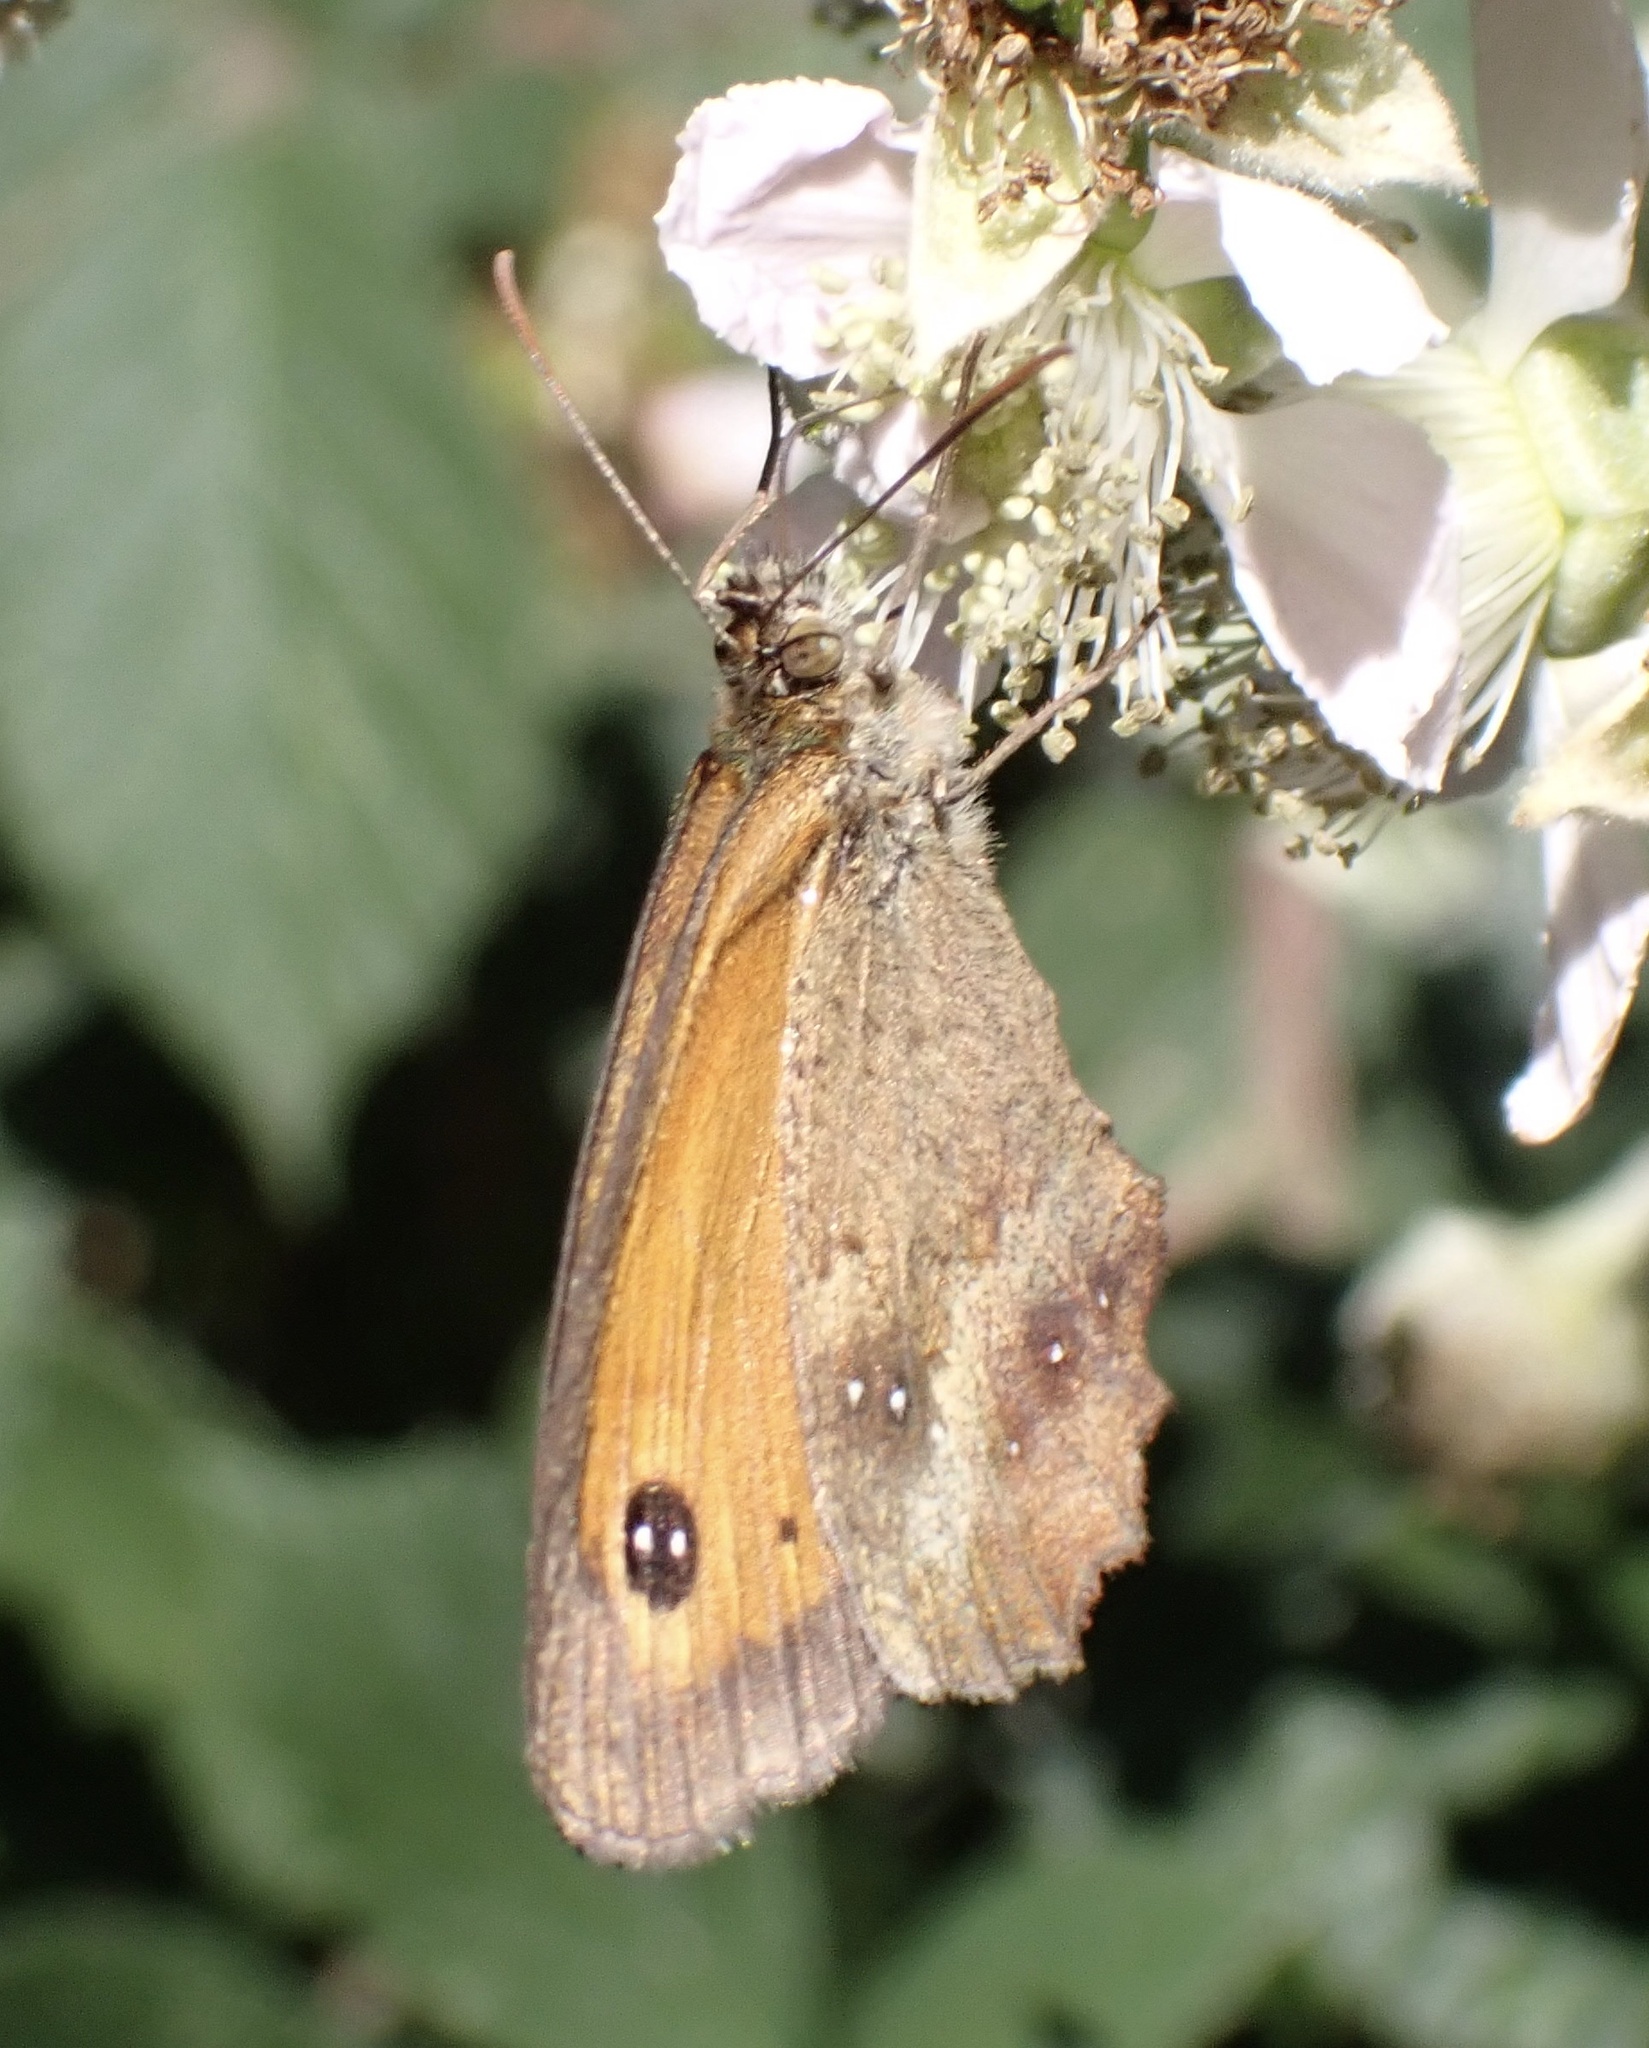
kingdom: Animalia
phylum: Arthropoda
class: Insecta
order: Lepidoptera
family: Nymphalidae
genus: Pyronia
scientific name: Pyronia tithonus
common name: Gatekeeper
